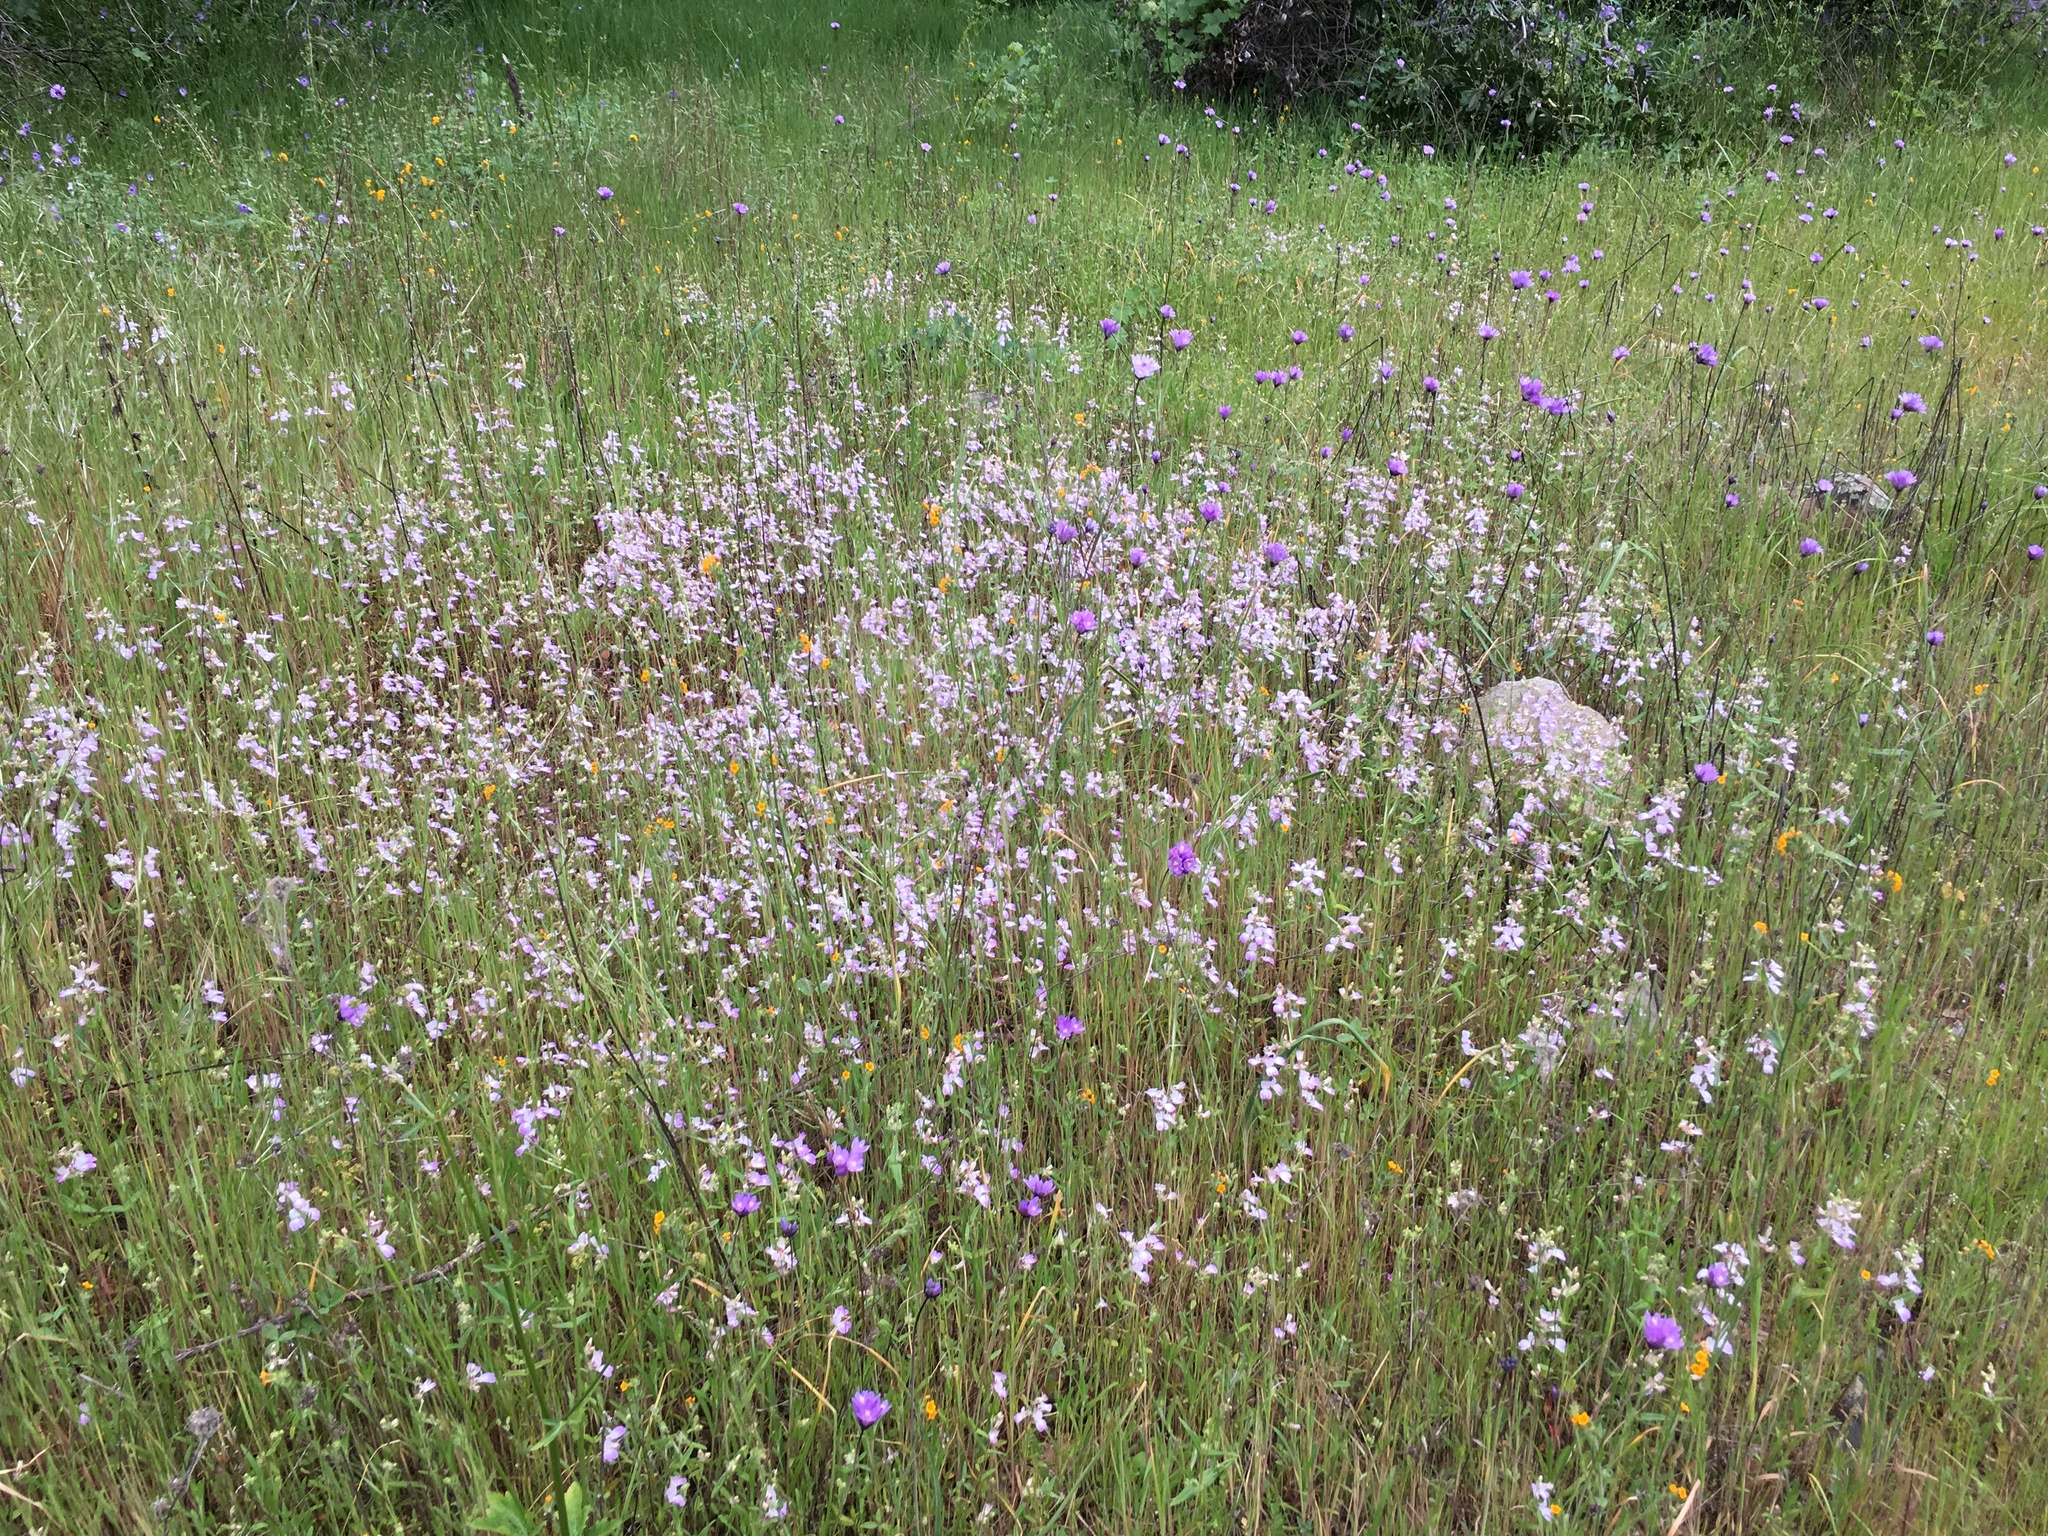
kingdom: Plantae
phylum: Tracheophyta
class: Liliopsida
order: Asparagales
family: Asparagaceae
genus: Dipterostemon
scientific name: Dipterostemon capitatus
